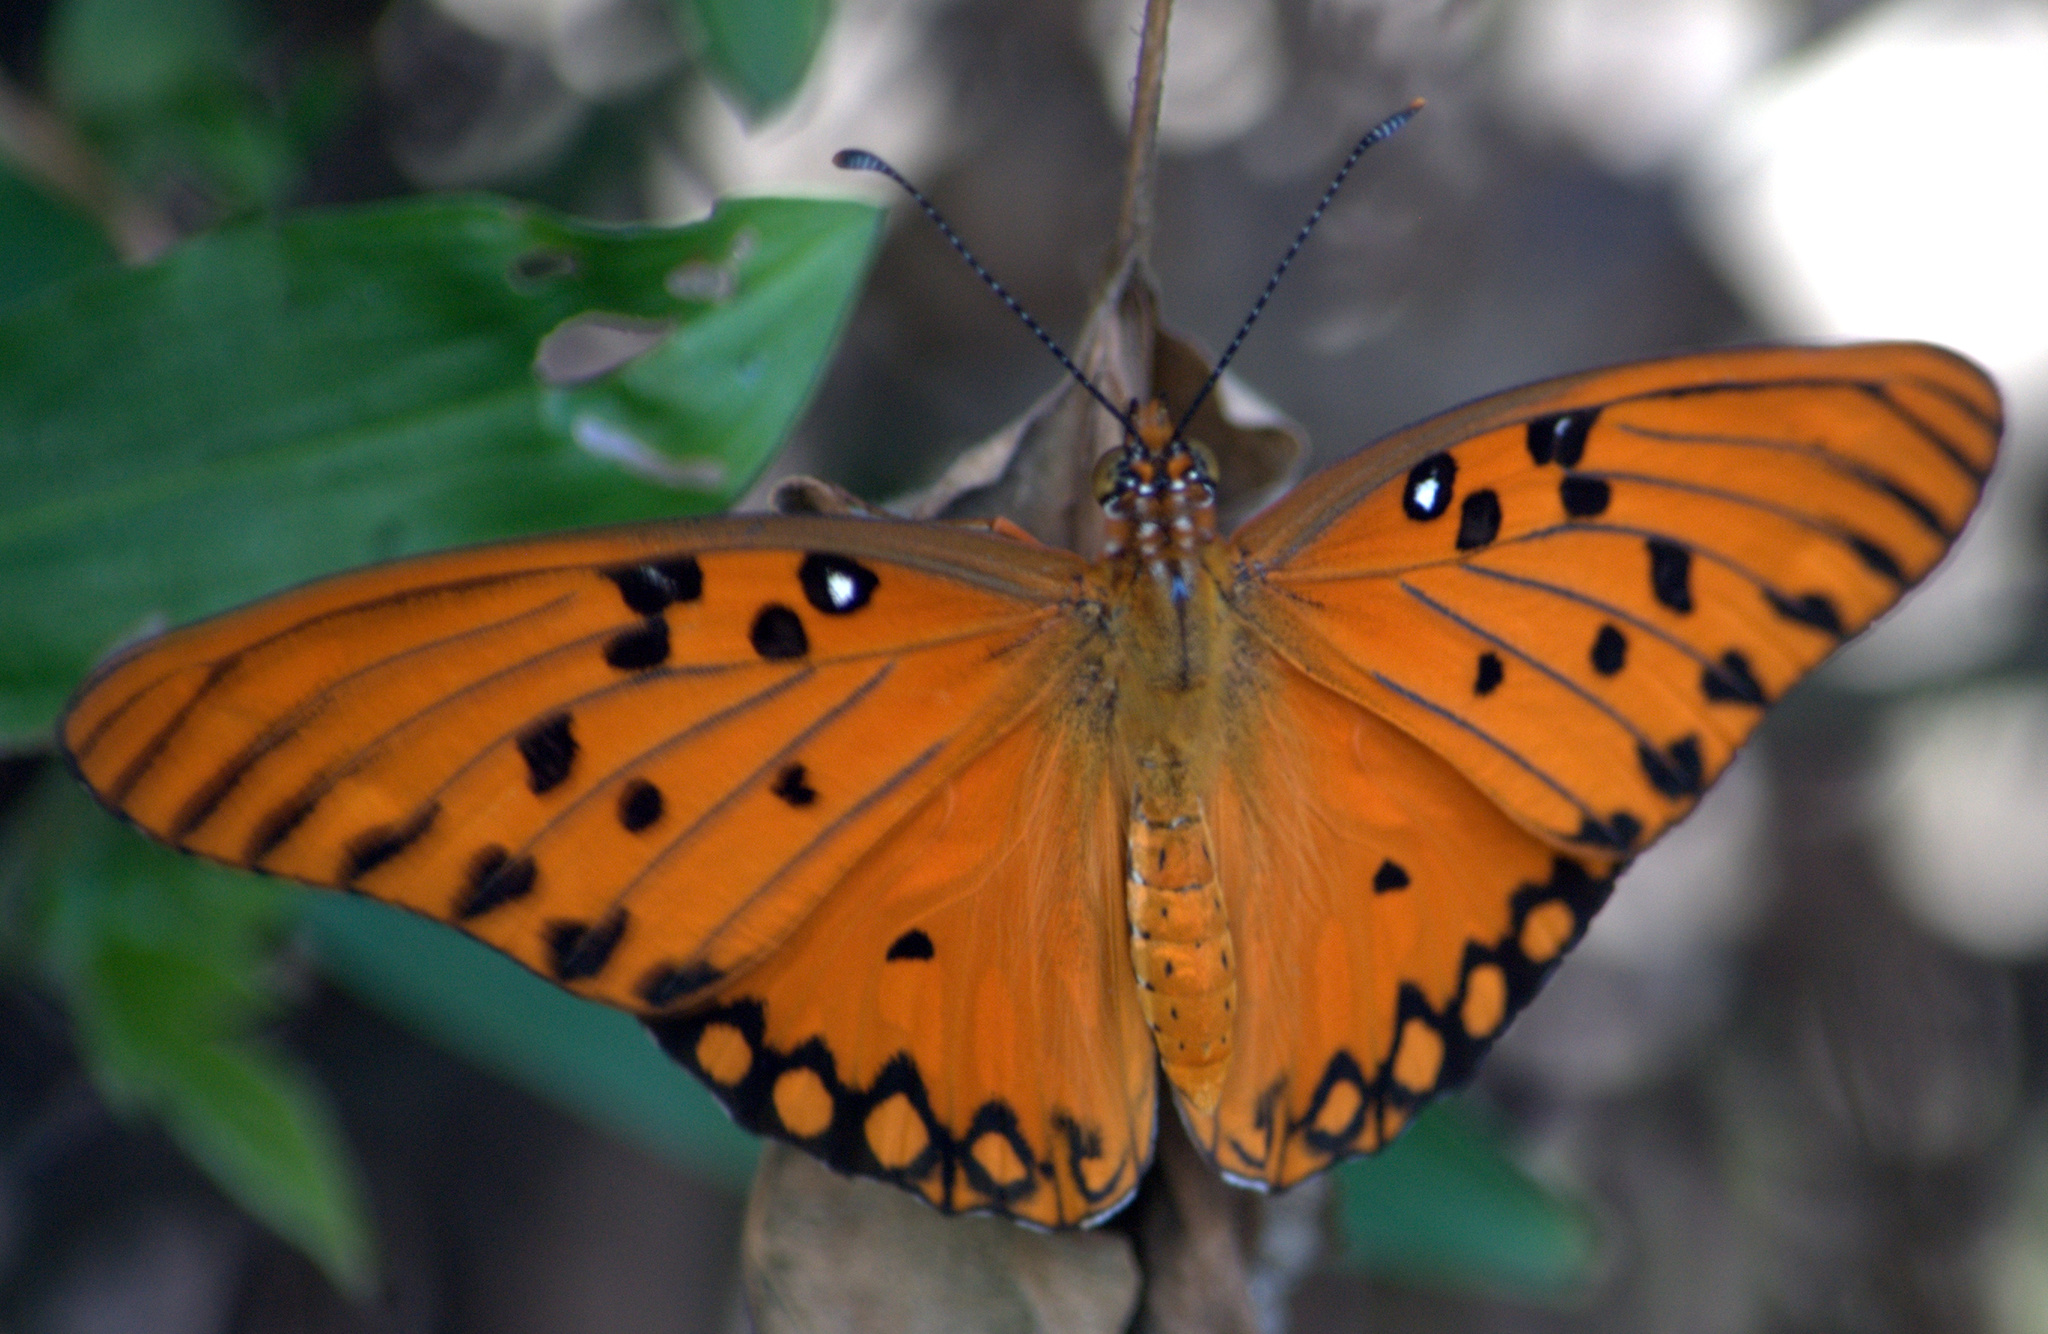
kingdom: Animalia
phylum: Arthropoda
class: Insecta
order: Lepidoptera
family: Nymphalidae
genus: Dione
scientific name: Dione vanillae
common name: Gulf fritillary
